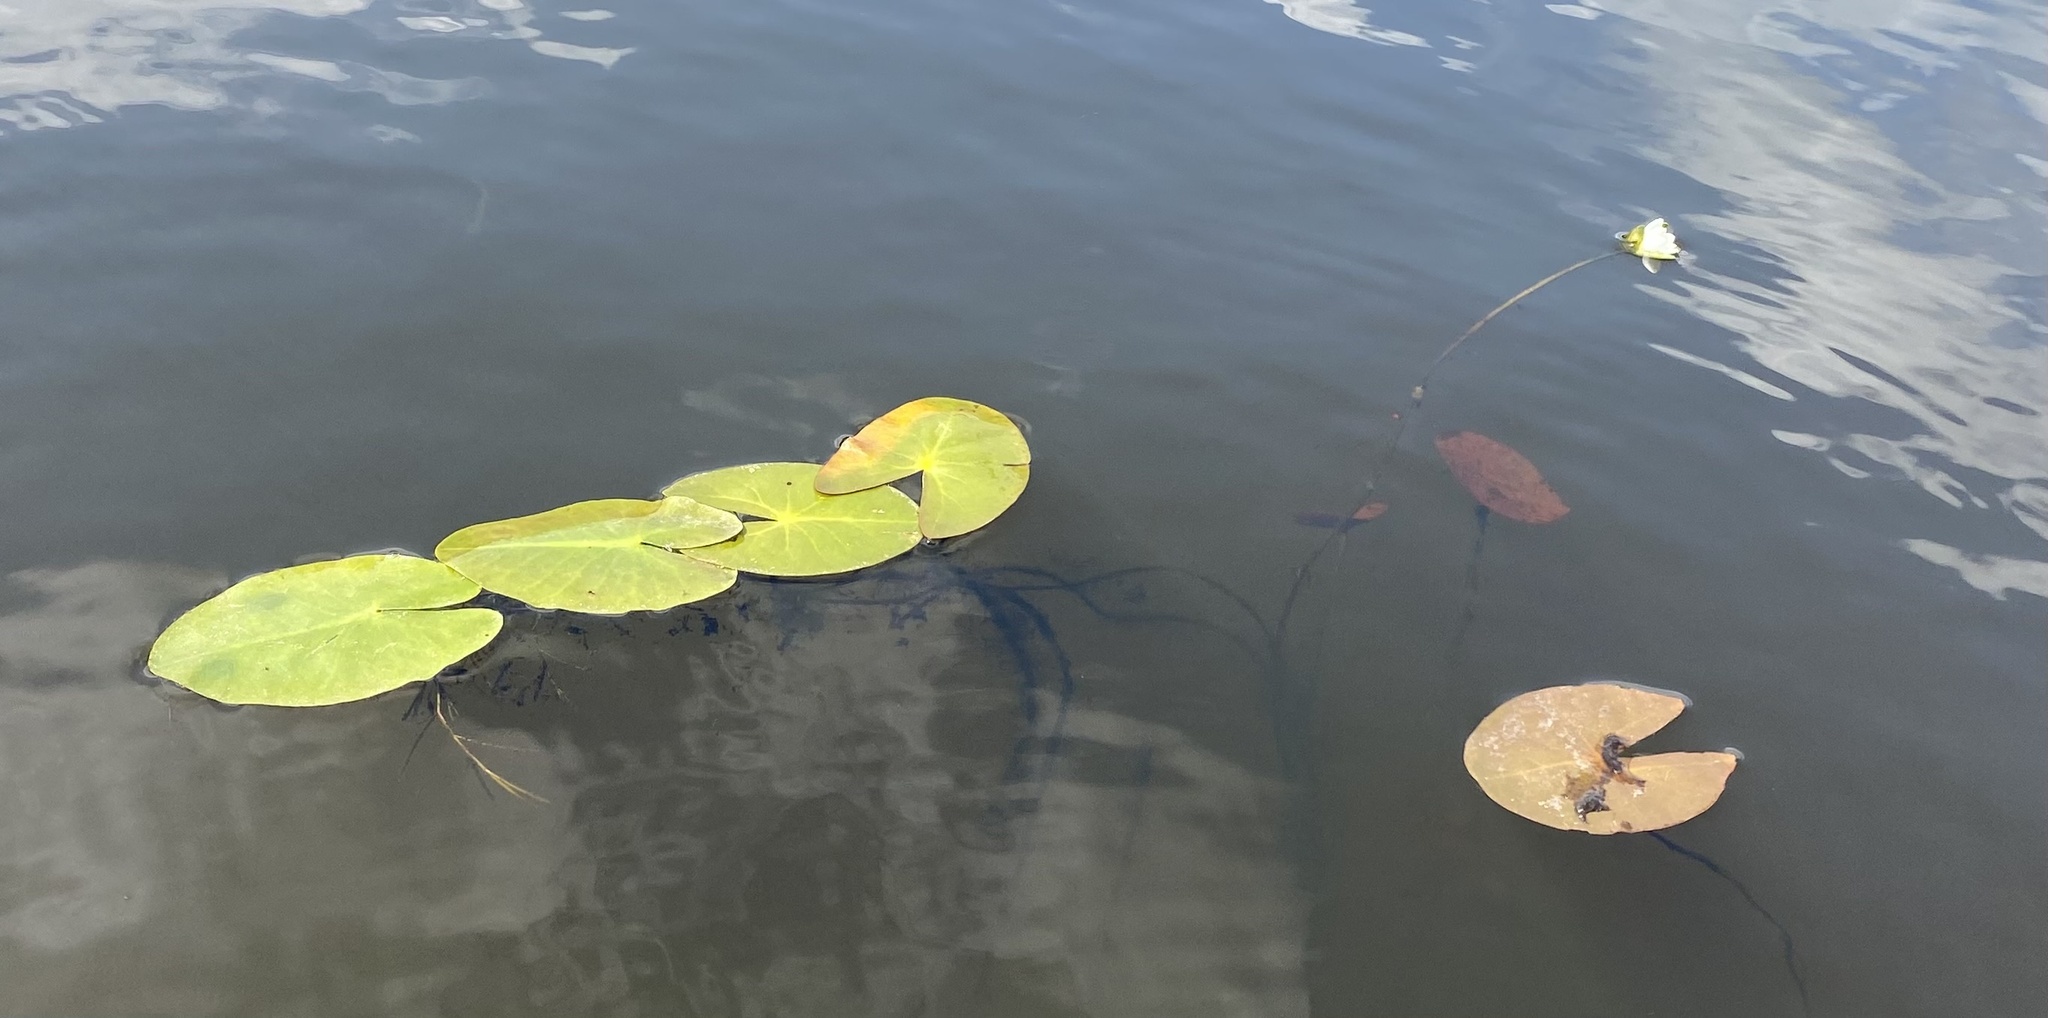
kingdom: Plantae
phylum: Tracheophyta
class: Magnoliopsida
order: Nymphaeales
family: Nymphaeaceae
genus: Nymphaea
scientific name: Nymphaea odorata
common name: Fragrant water-lily
